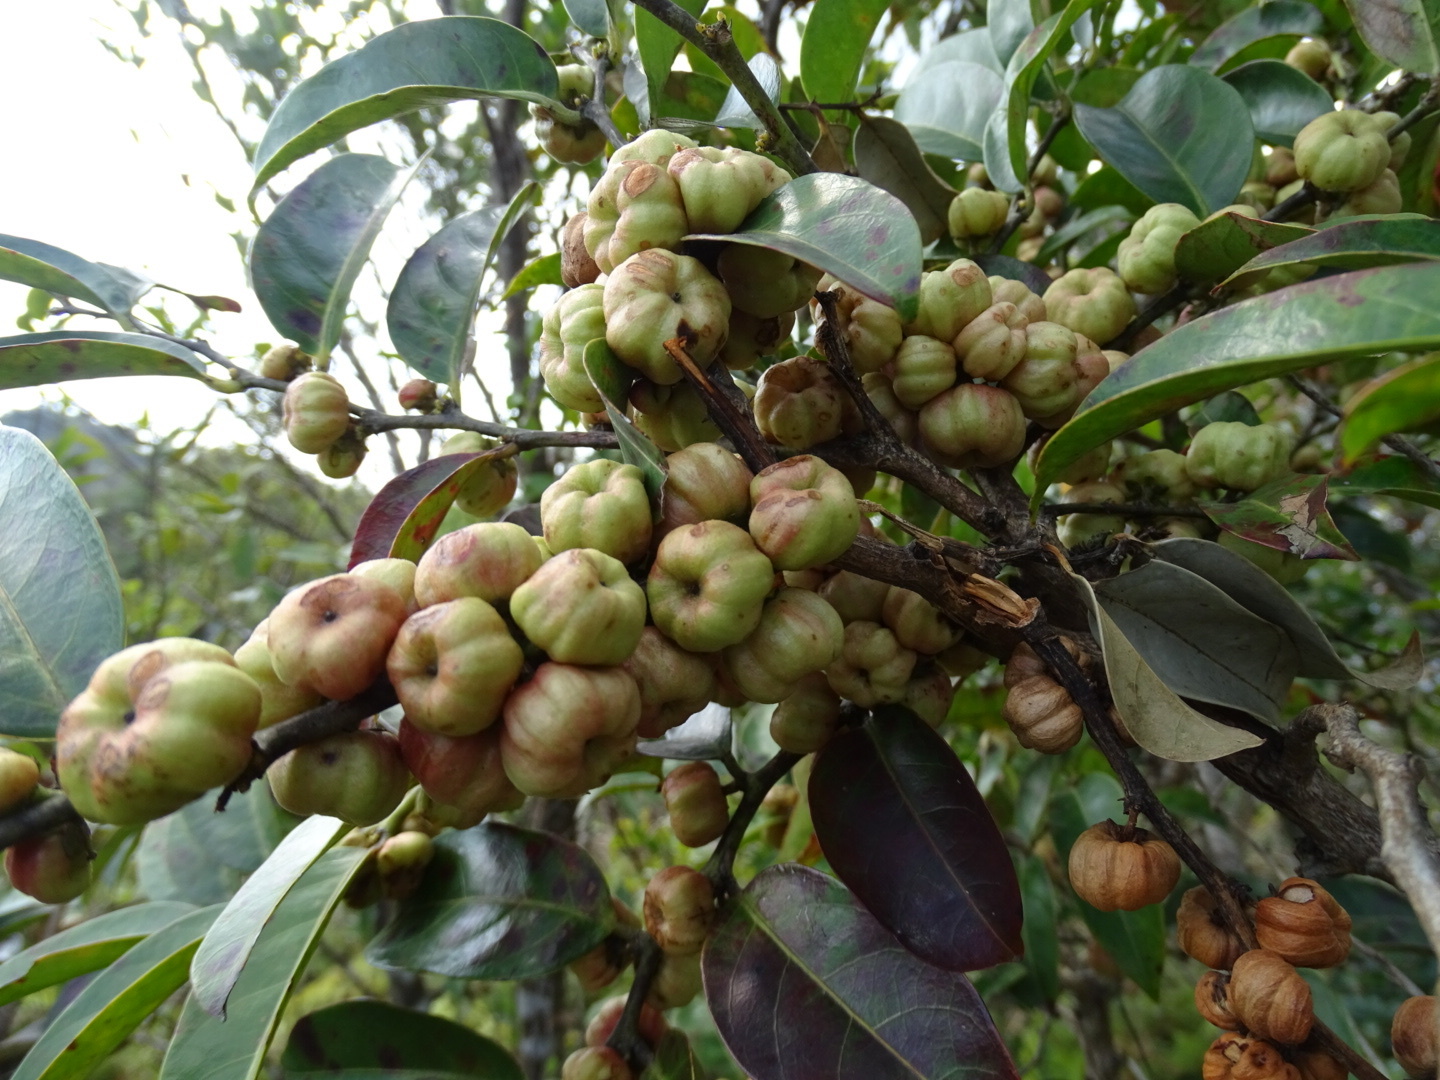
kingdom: Plantae
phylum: Tracheophyta
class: Magnoliopsida
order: Malpighiales
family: Phyllanthaceae
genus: Glochidion
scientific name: Glochidion lanceolarium
